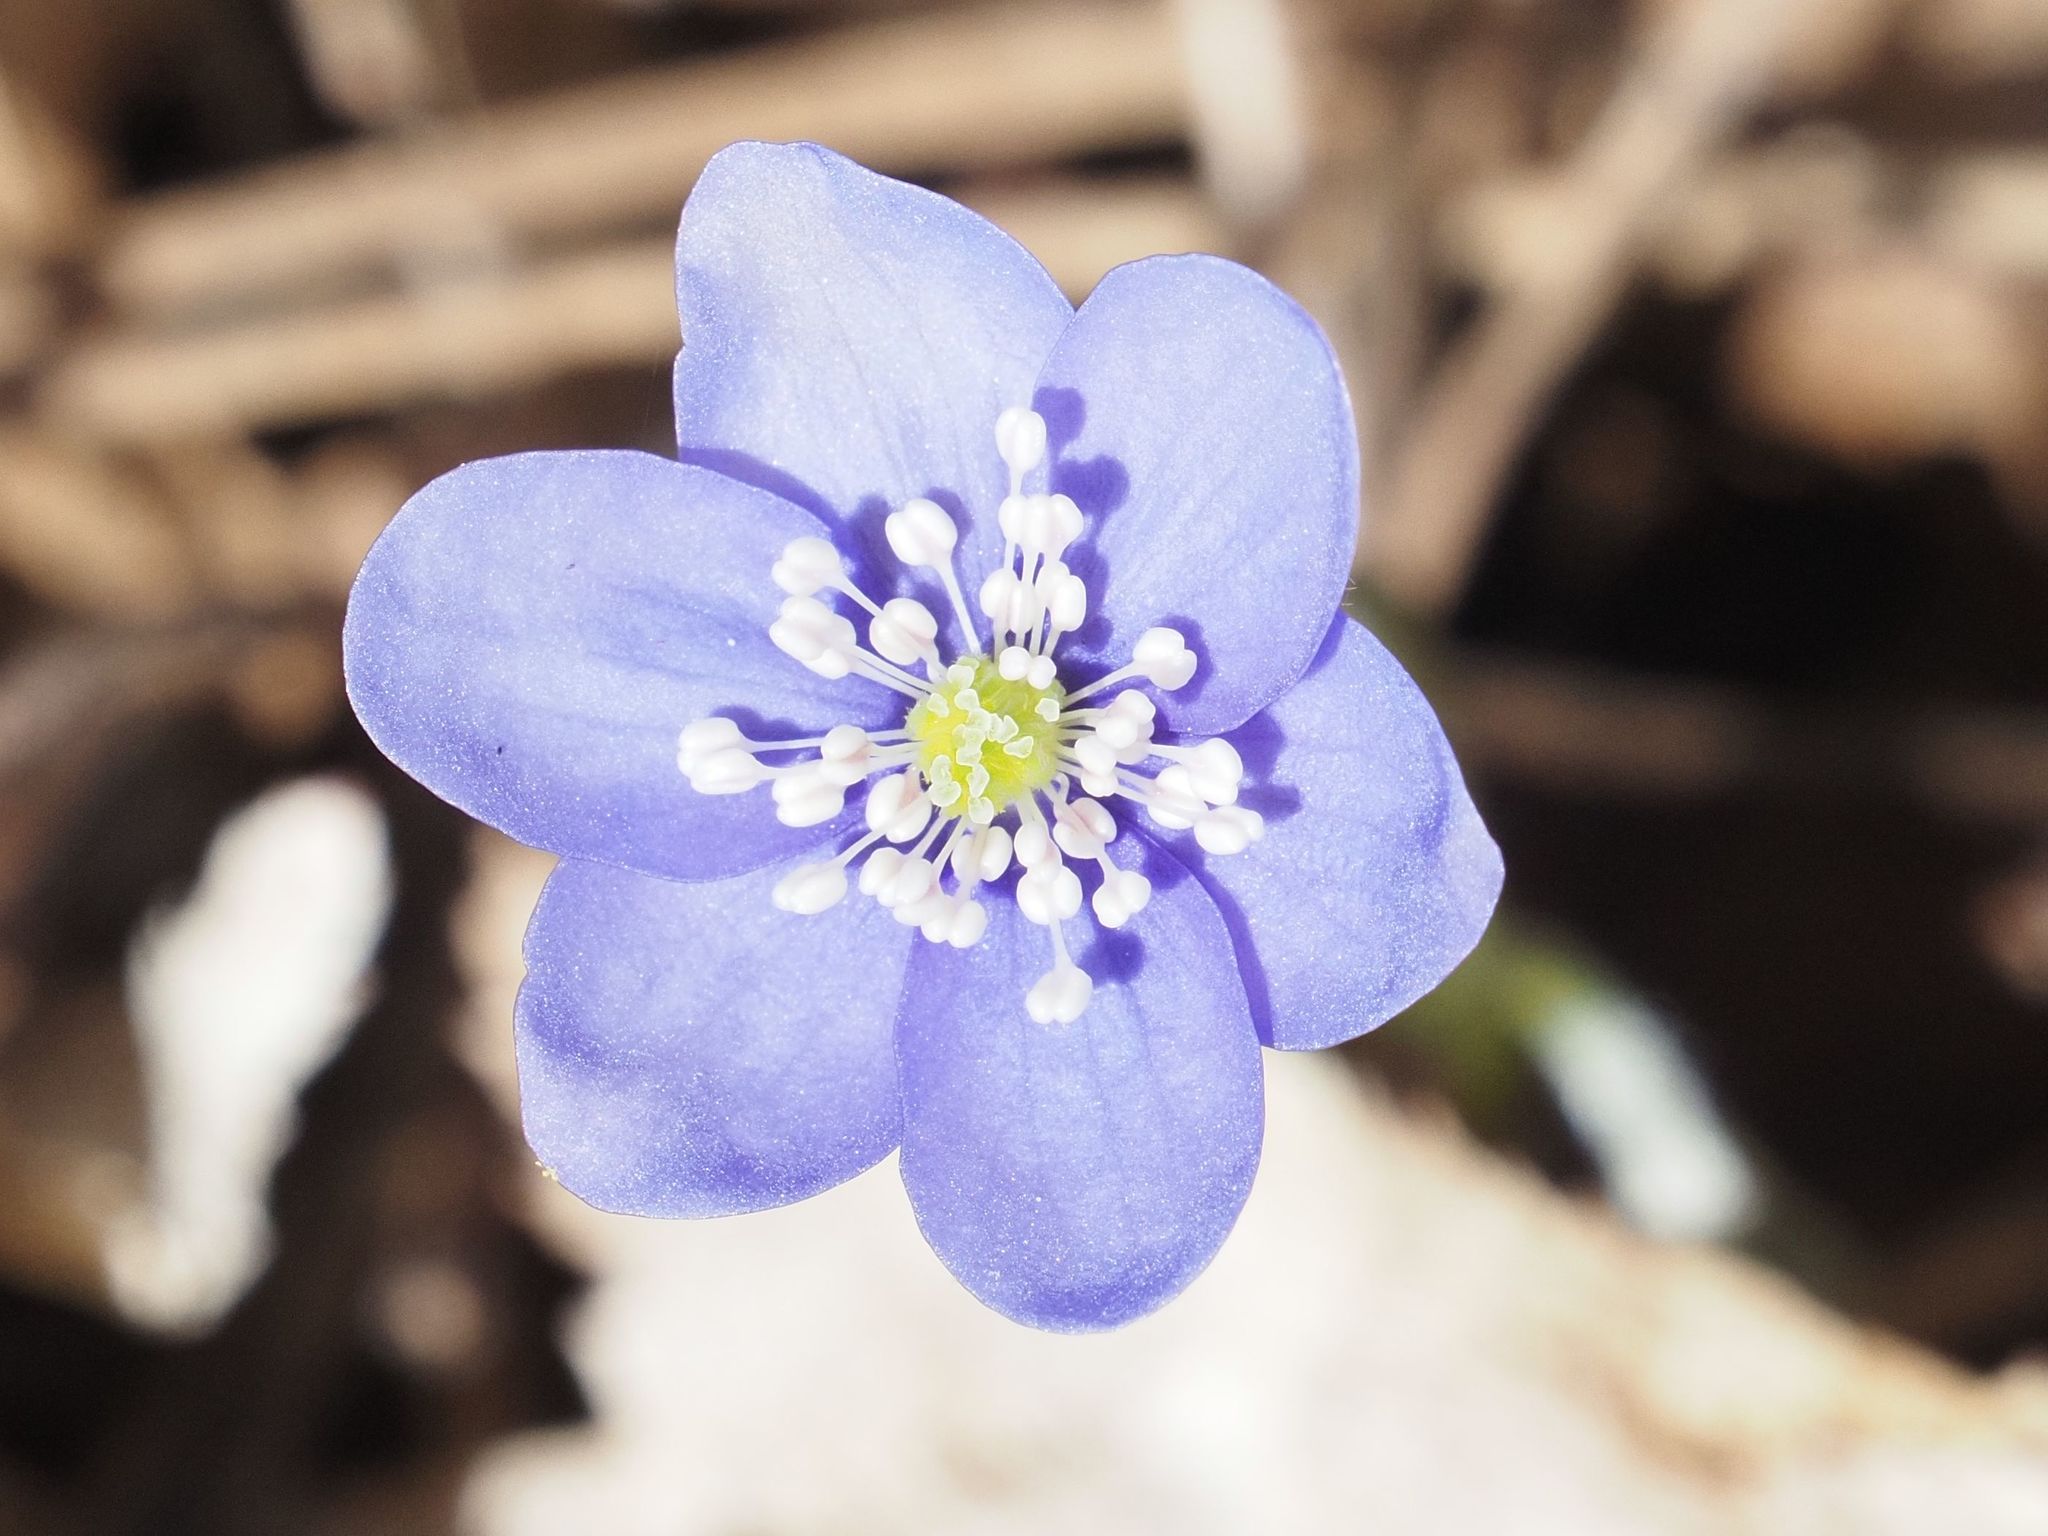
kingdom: Plantae
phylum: Tracheophyta
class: Magnoliopsida
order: Ranunculales
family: Ranunculaceae
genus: Hepatica
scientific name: Hepatica nobilis
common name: Liverleaf
